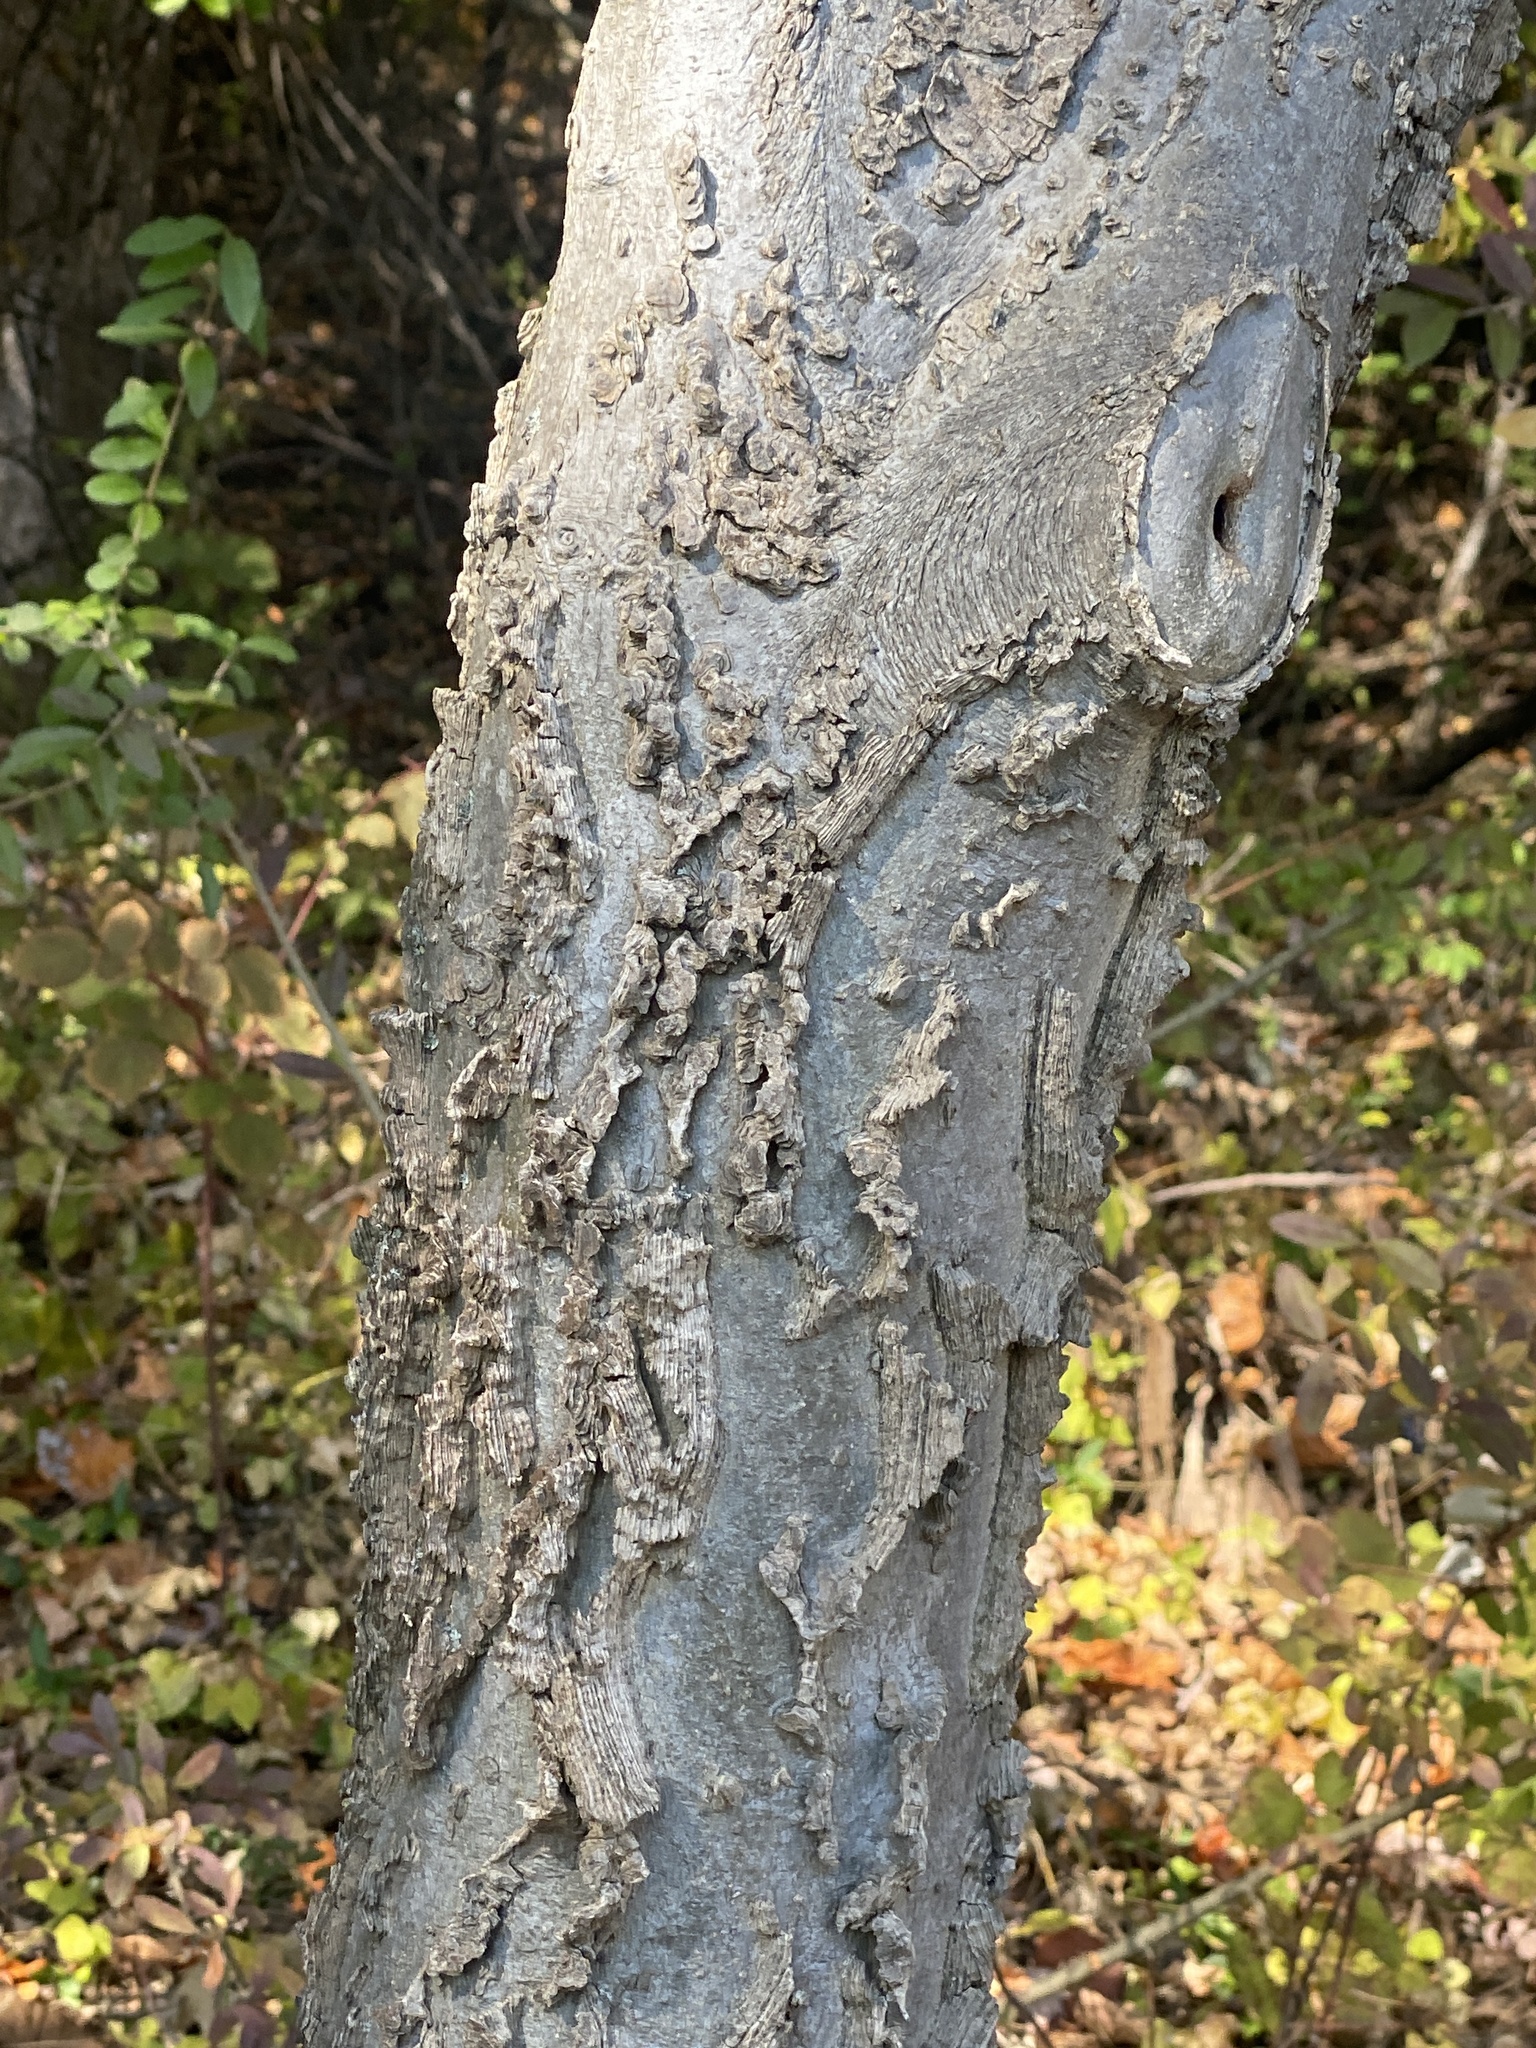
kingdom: Plantae
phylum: Tracheophyta
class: Magnoliopsida
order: Rosales
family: Cannabaceae
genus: Celtis
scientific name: Celtis occidentalis
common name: Common hackberry
